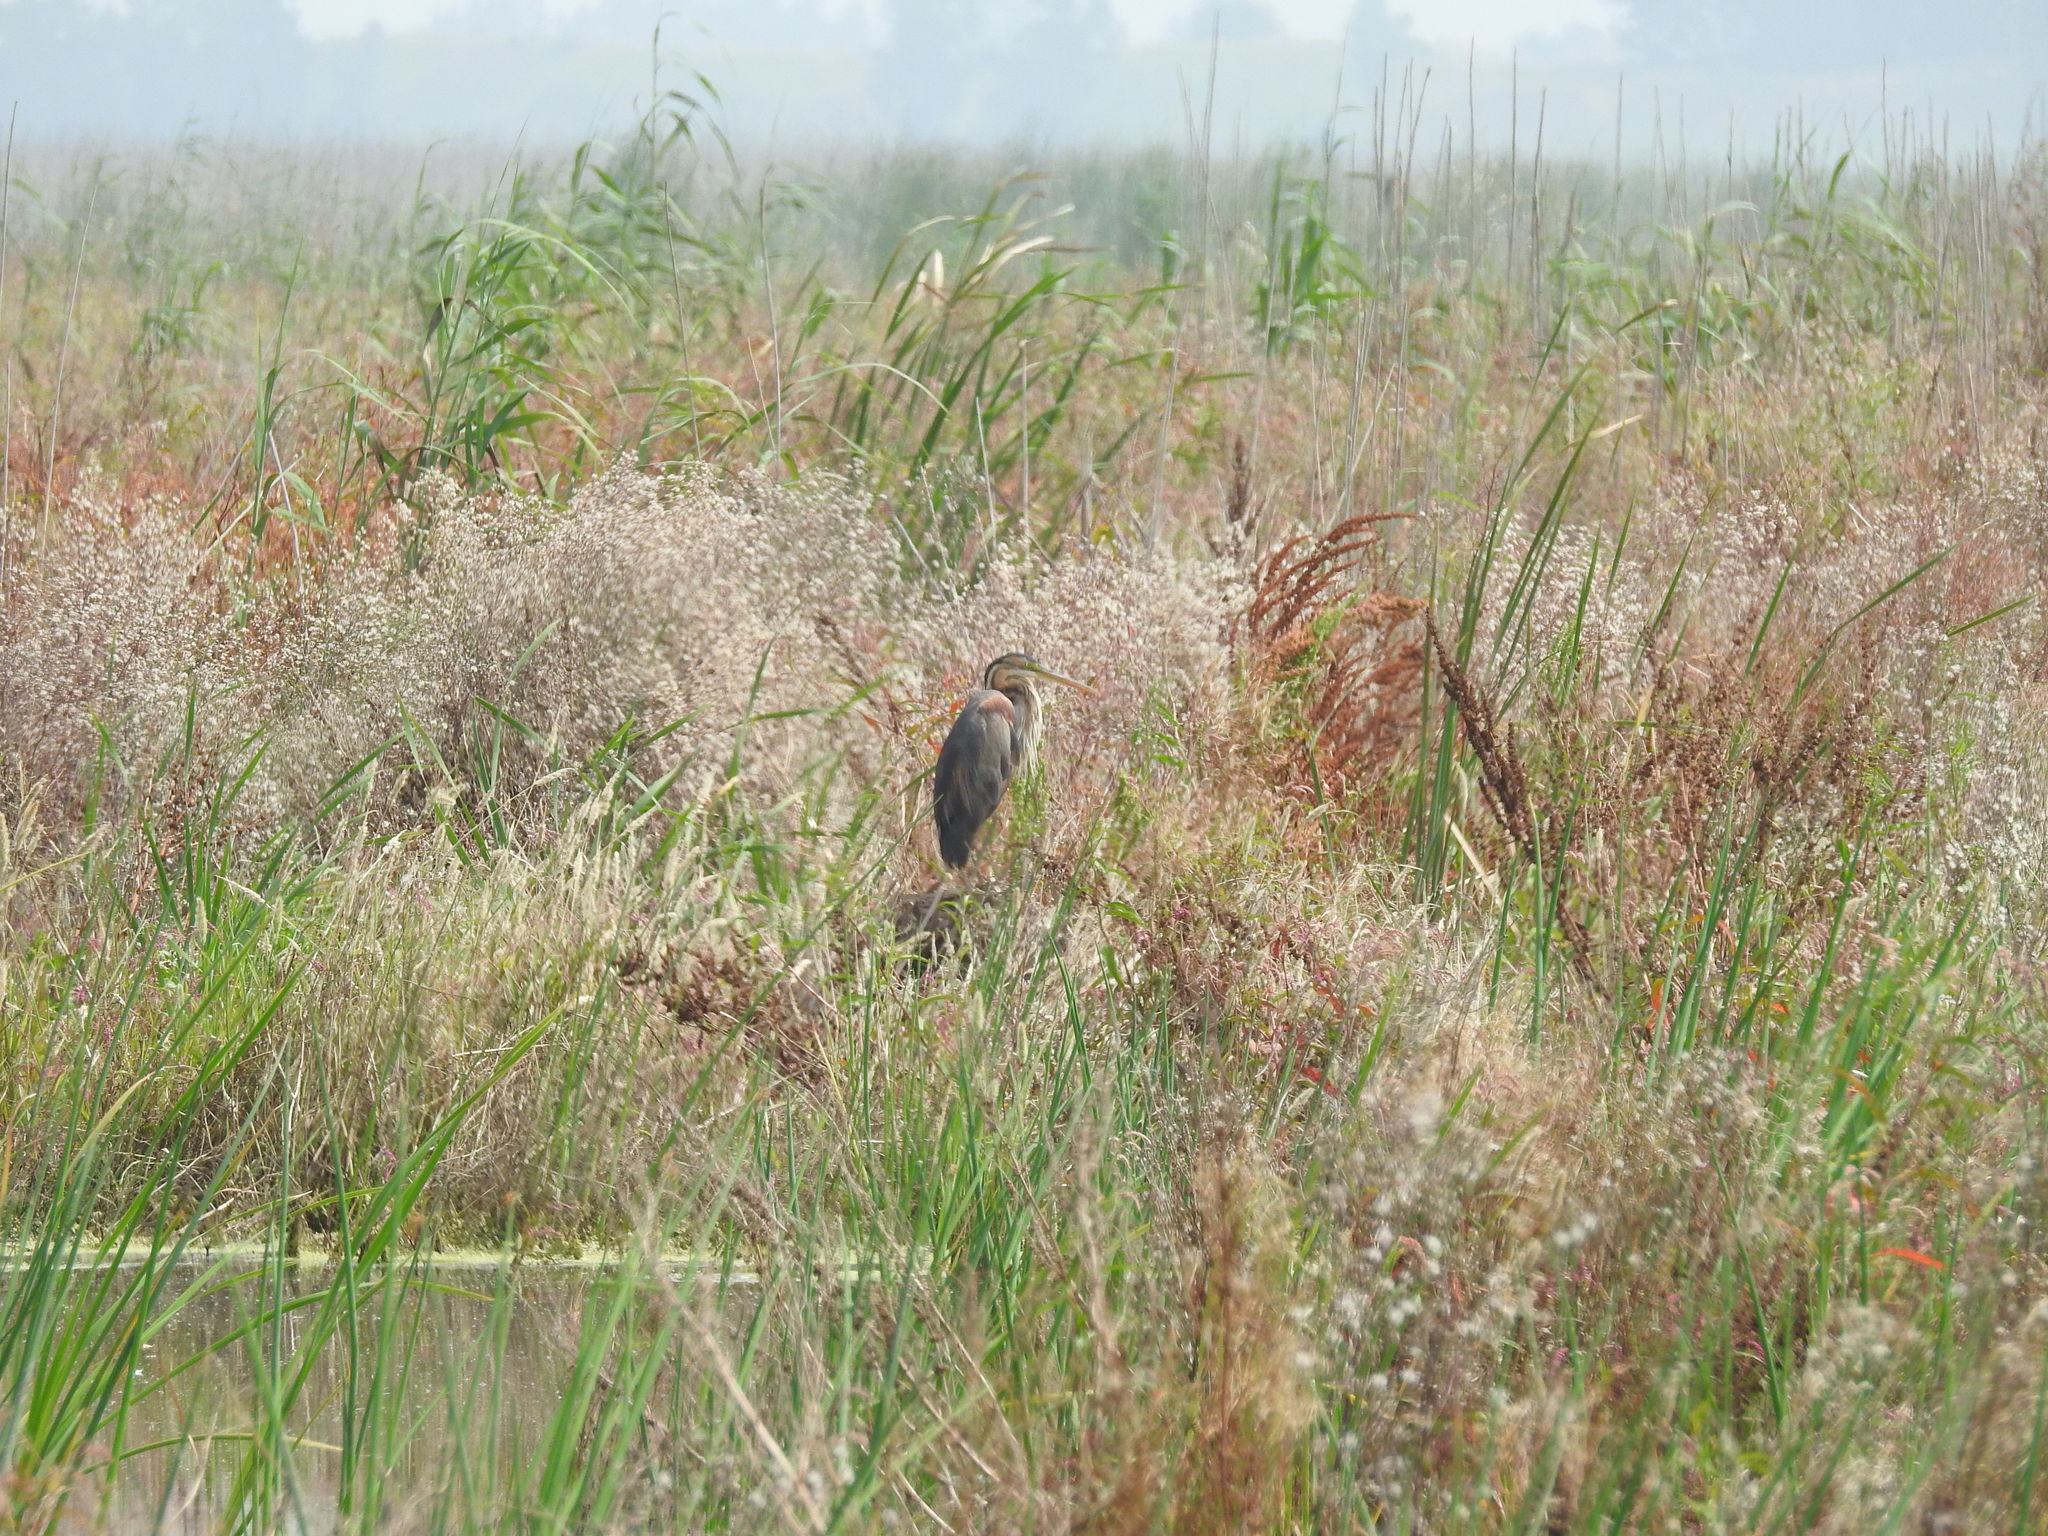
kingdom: Animalia
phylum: Chordata
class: Aves
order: Pelecaniformes
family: Ardeidae
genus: Ardea
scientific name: Ardea purpurea
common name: Purple heron
